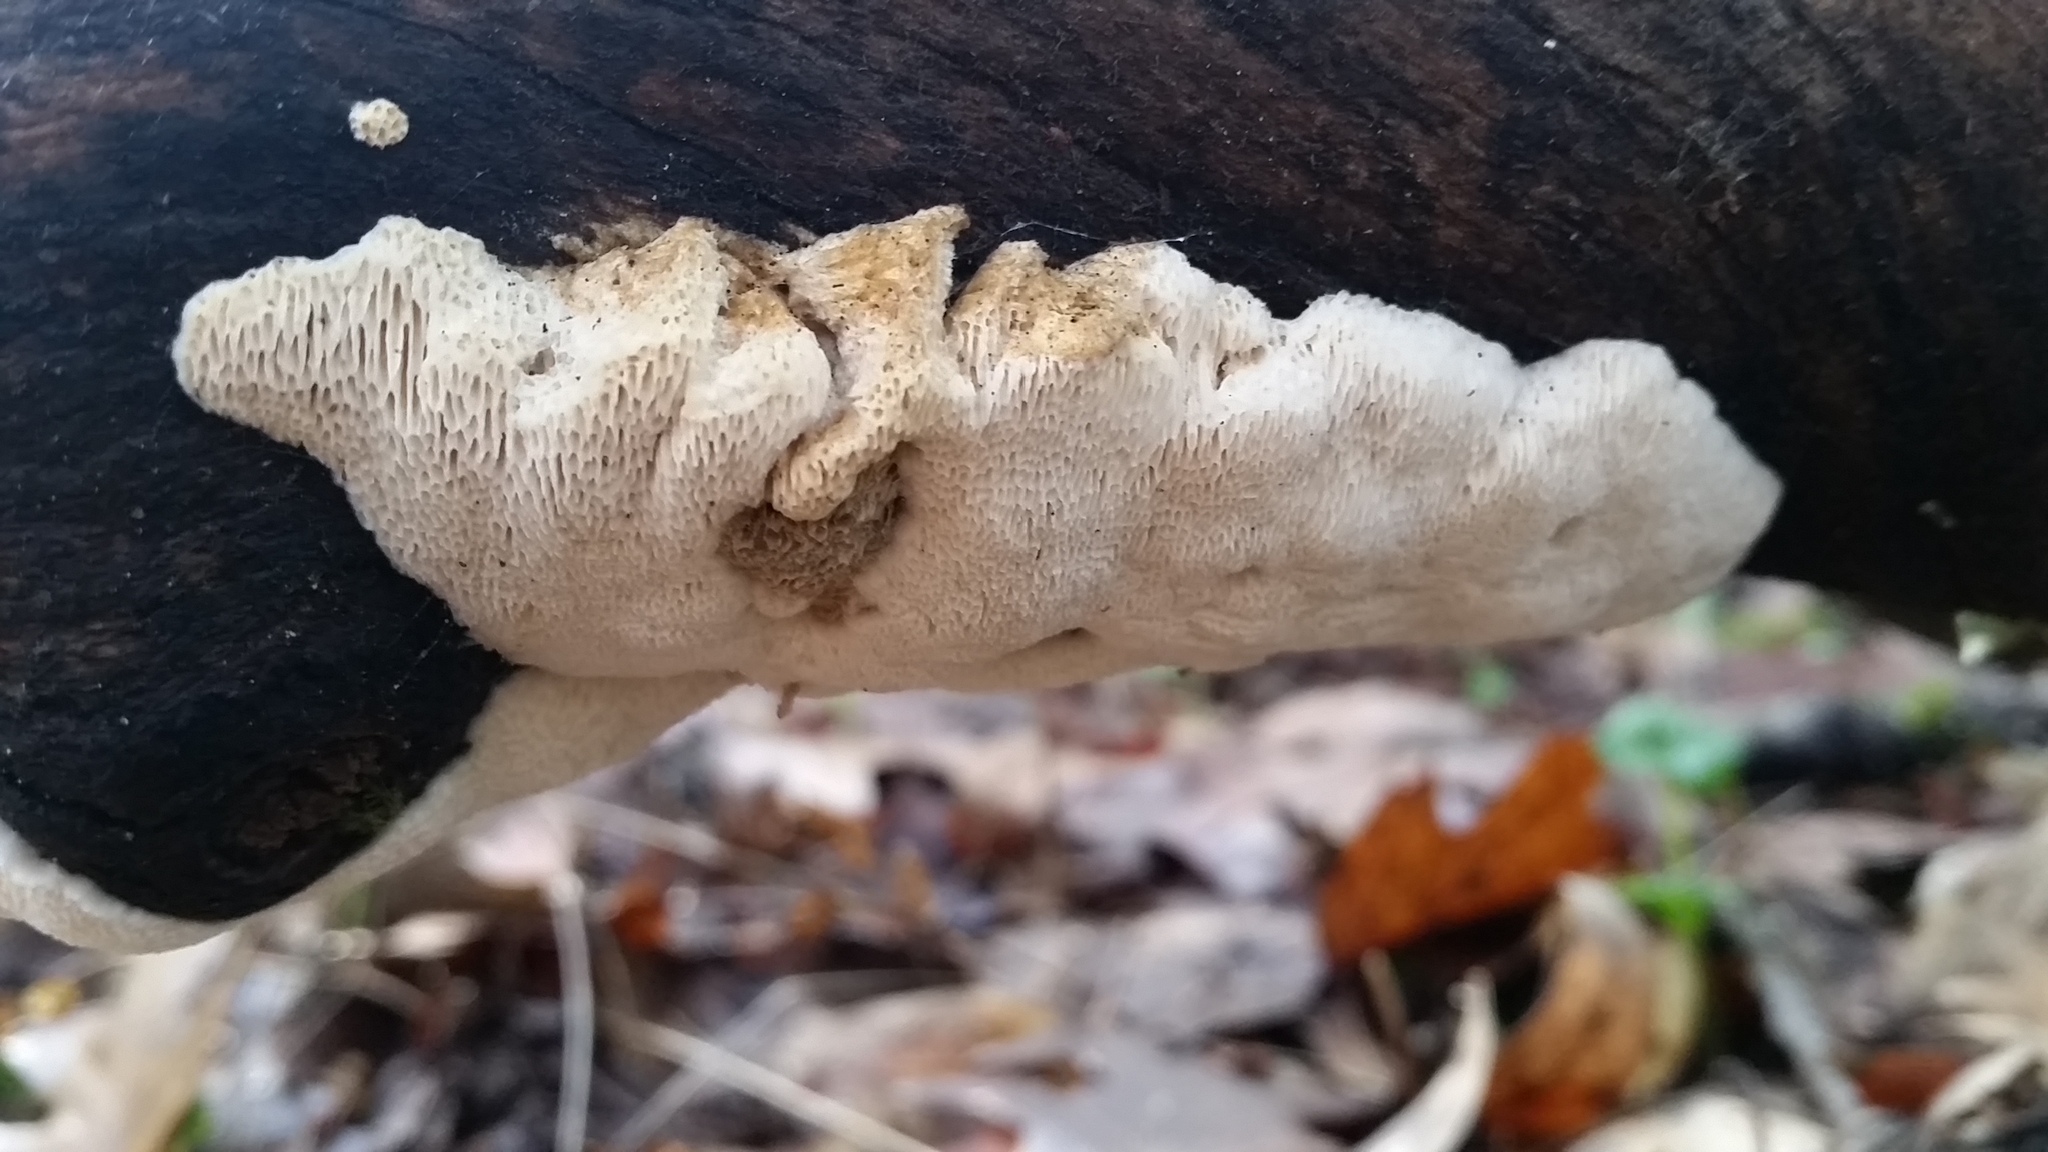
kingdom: Fungi
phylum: Basidiomycota
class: Agaricomycetes
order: Polyporales
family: Fomitopsidaceae
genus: Fomitopsis
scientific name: Fomitopsis
